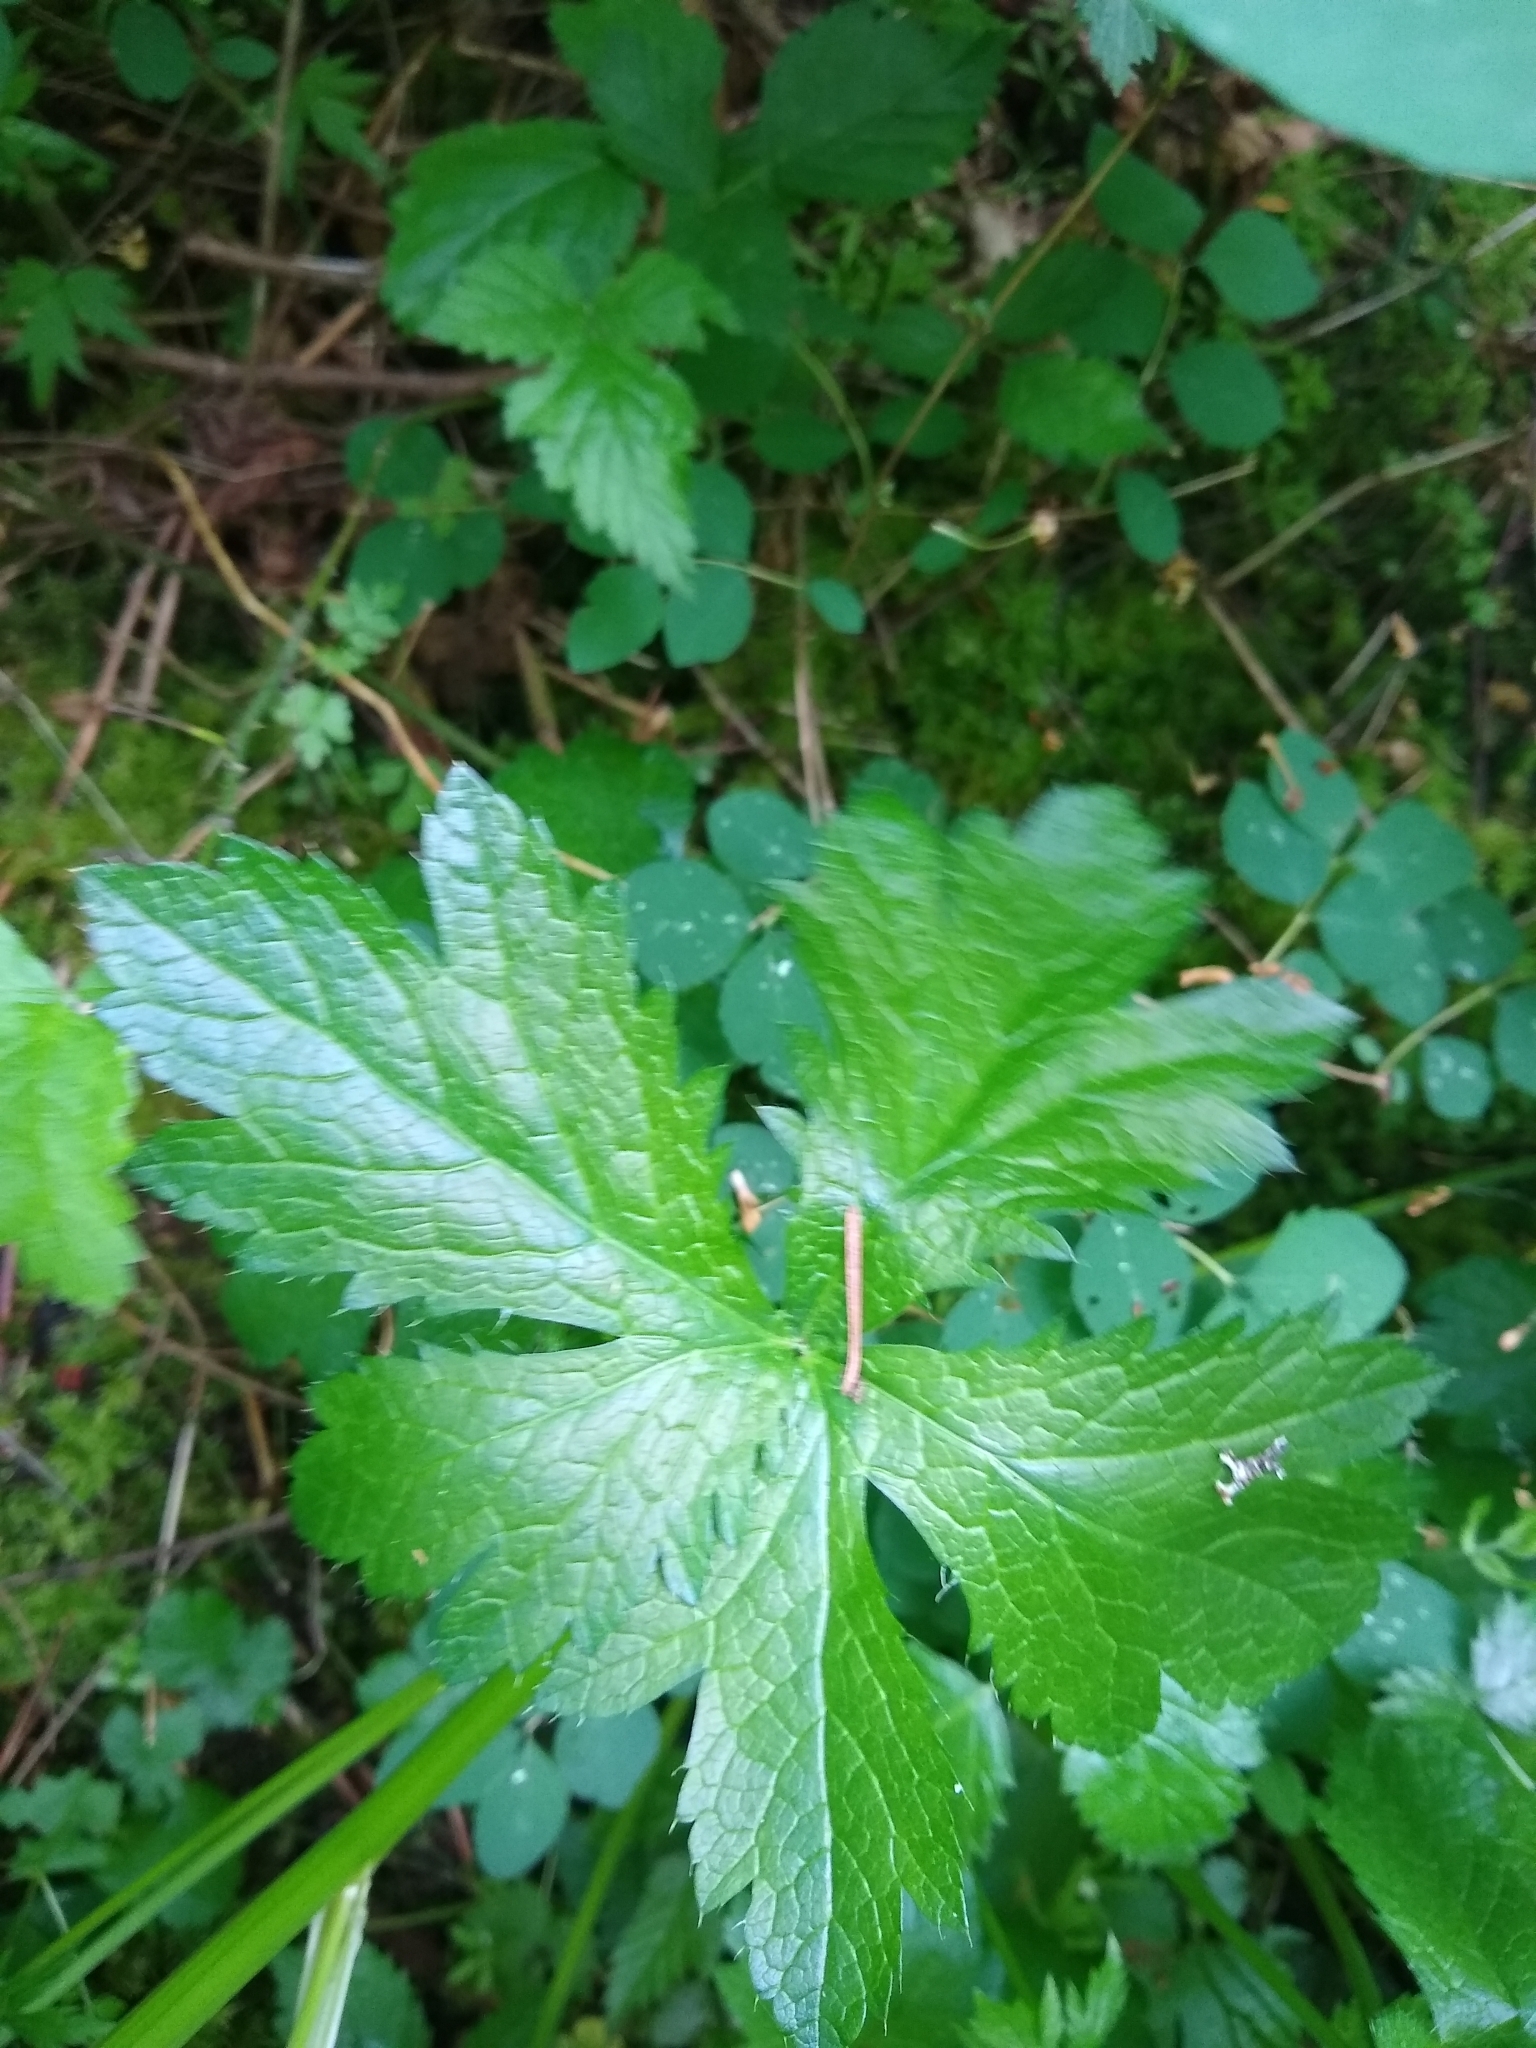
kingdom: Plantae
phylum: Tracheophyta
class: Magnoliopsida
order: Apiales
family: Apiaceae
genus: Sanicula
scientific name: Sanicula crassicaulis
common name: Western snakeroot
